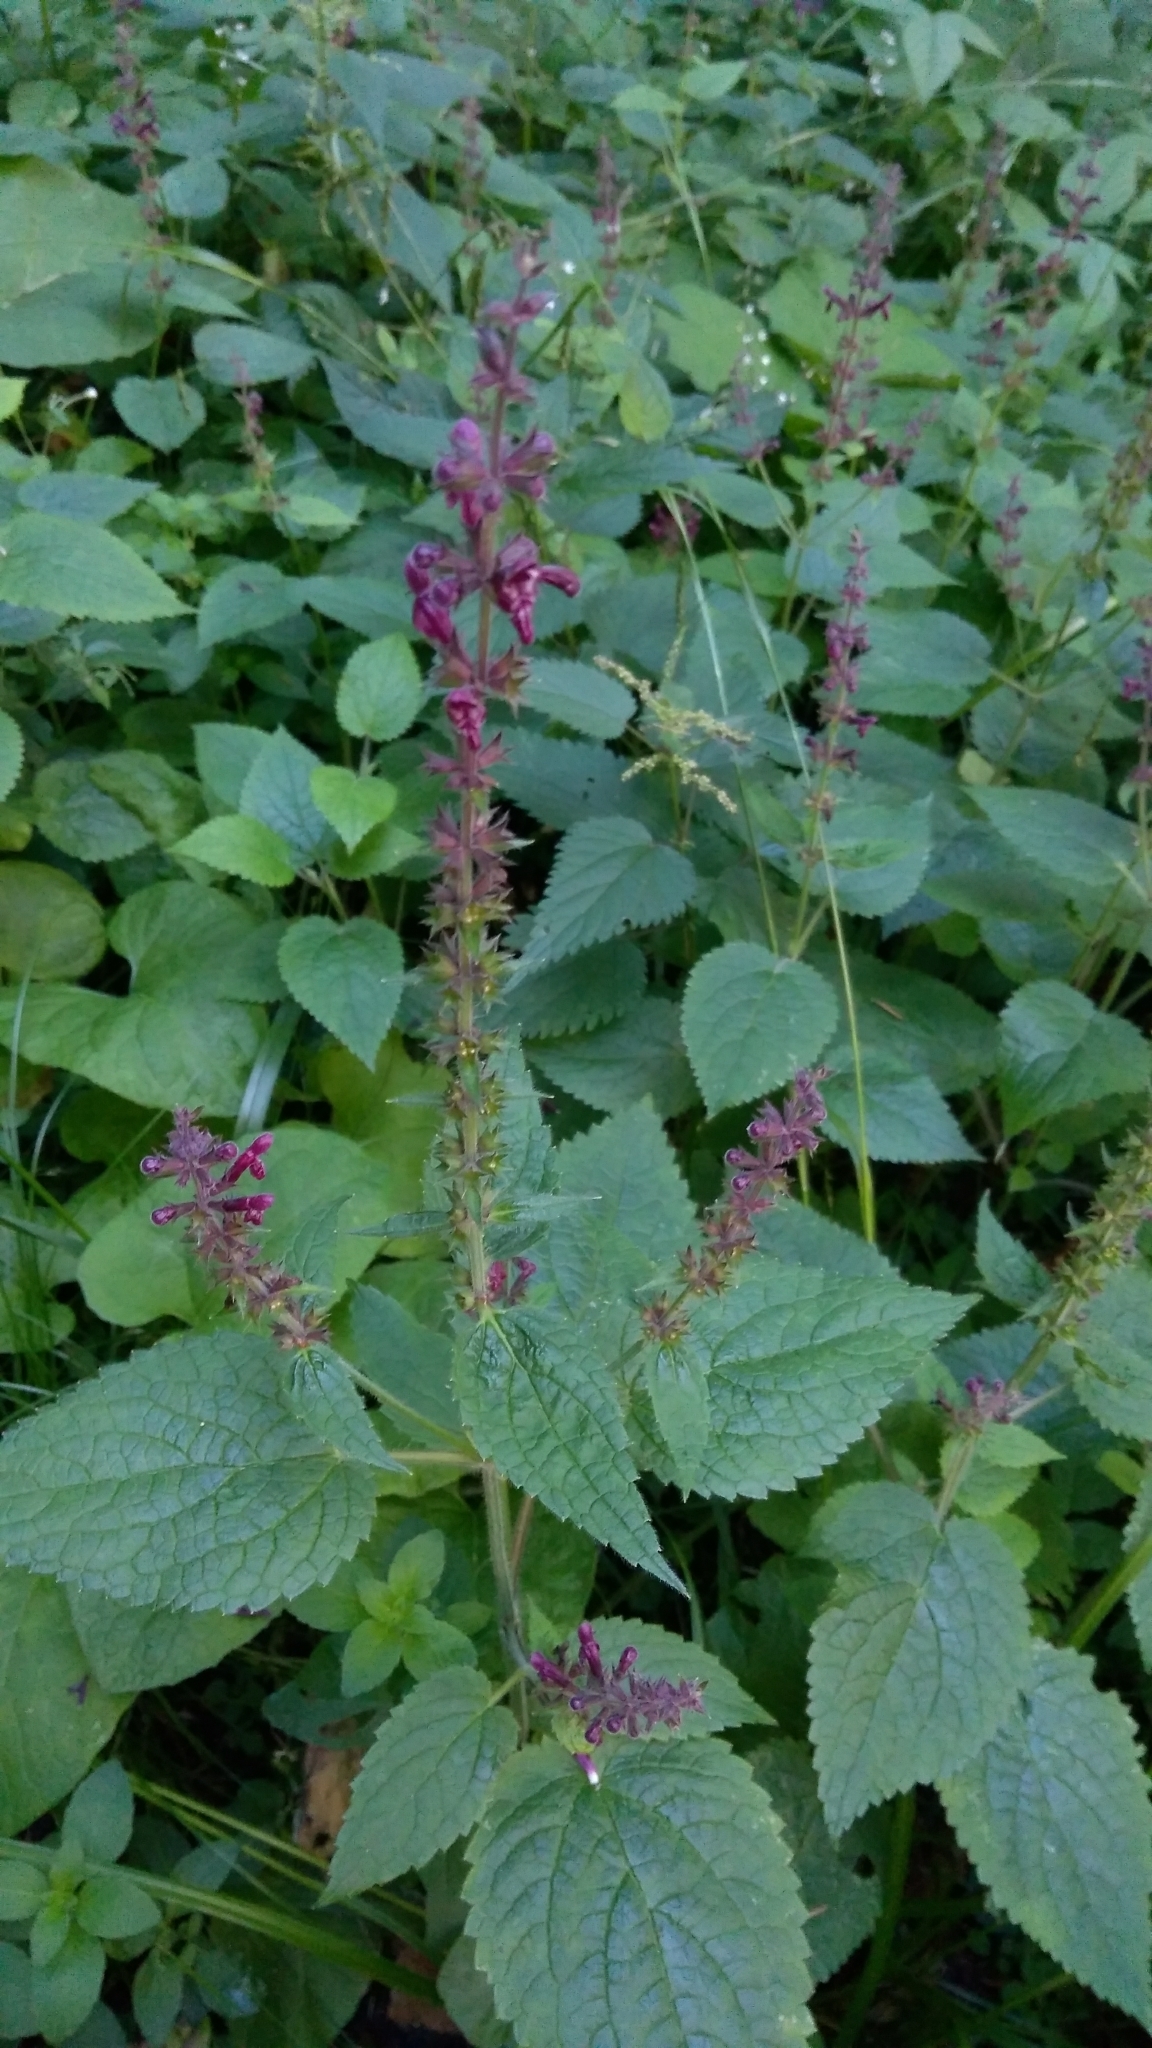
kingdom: Plantae
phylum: Tracheophyta
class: Magnoliopsida
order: Lamiales
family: Lamiaceae
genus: Stachys
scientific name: Stachys sylvatica
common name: Hedge woundwort
